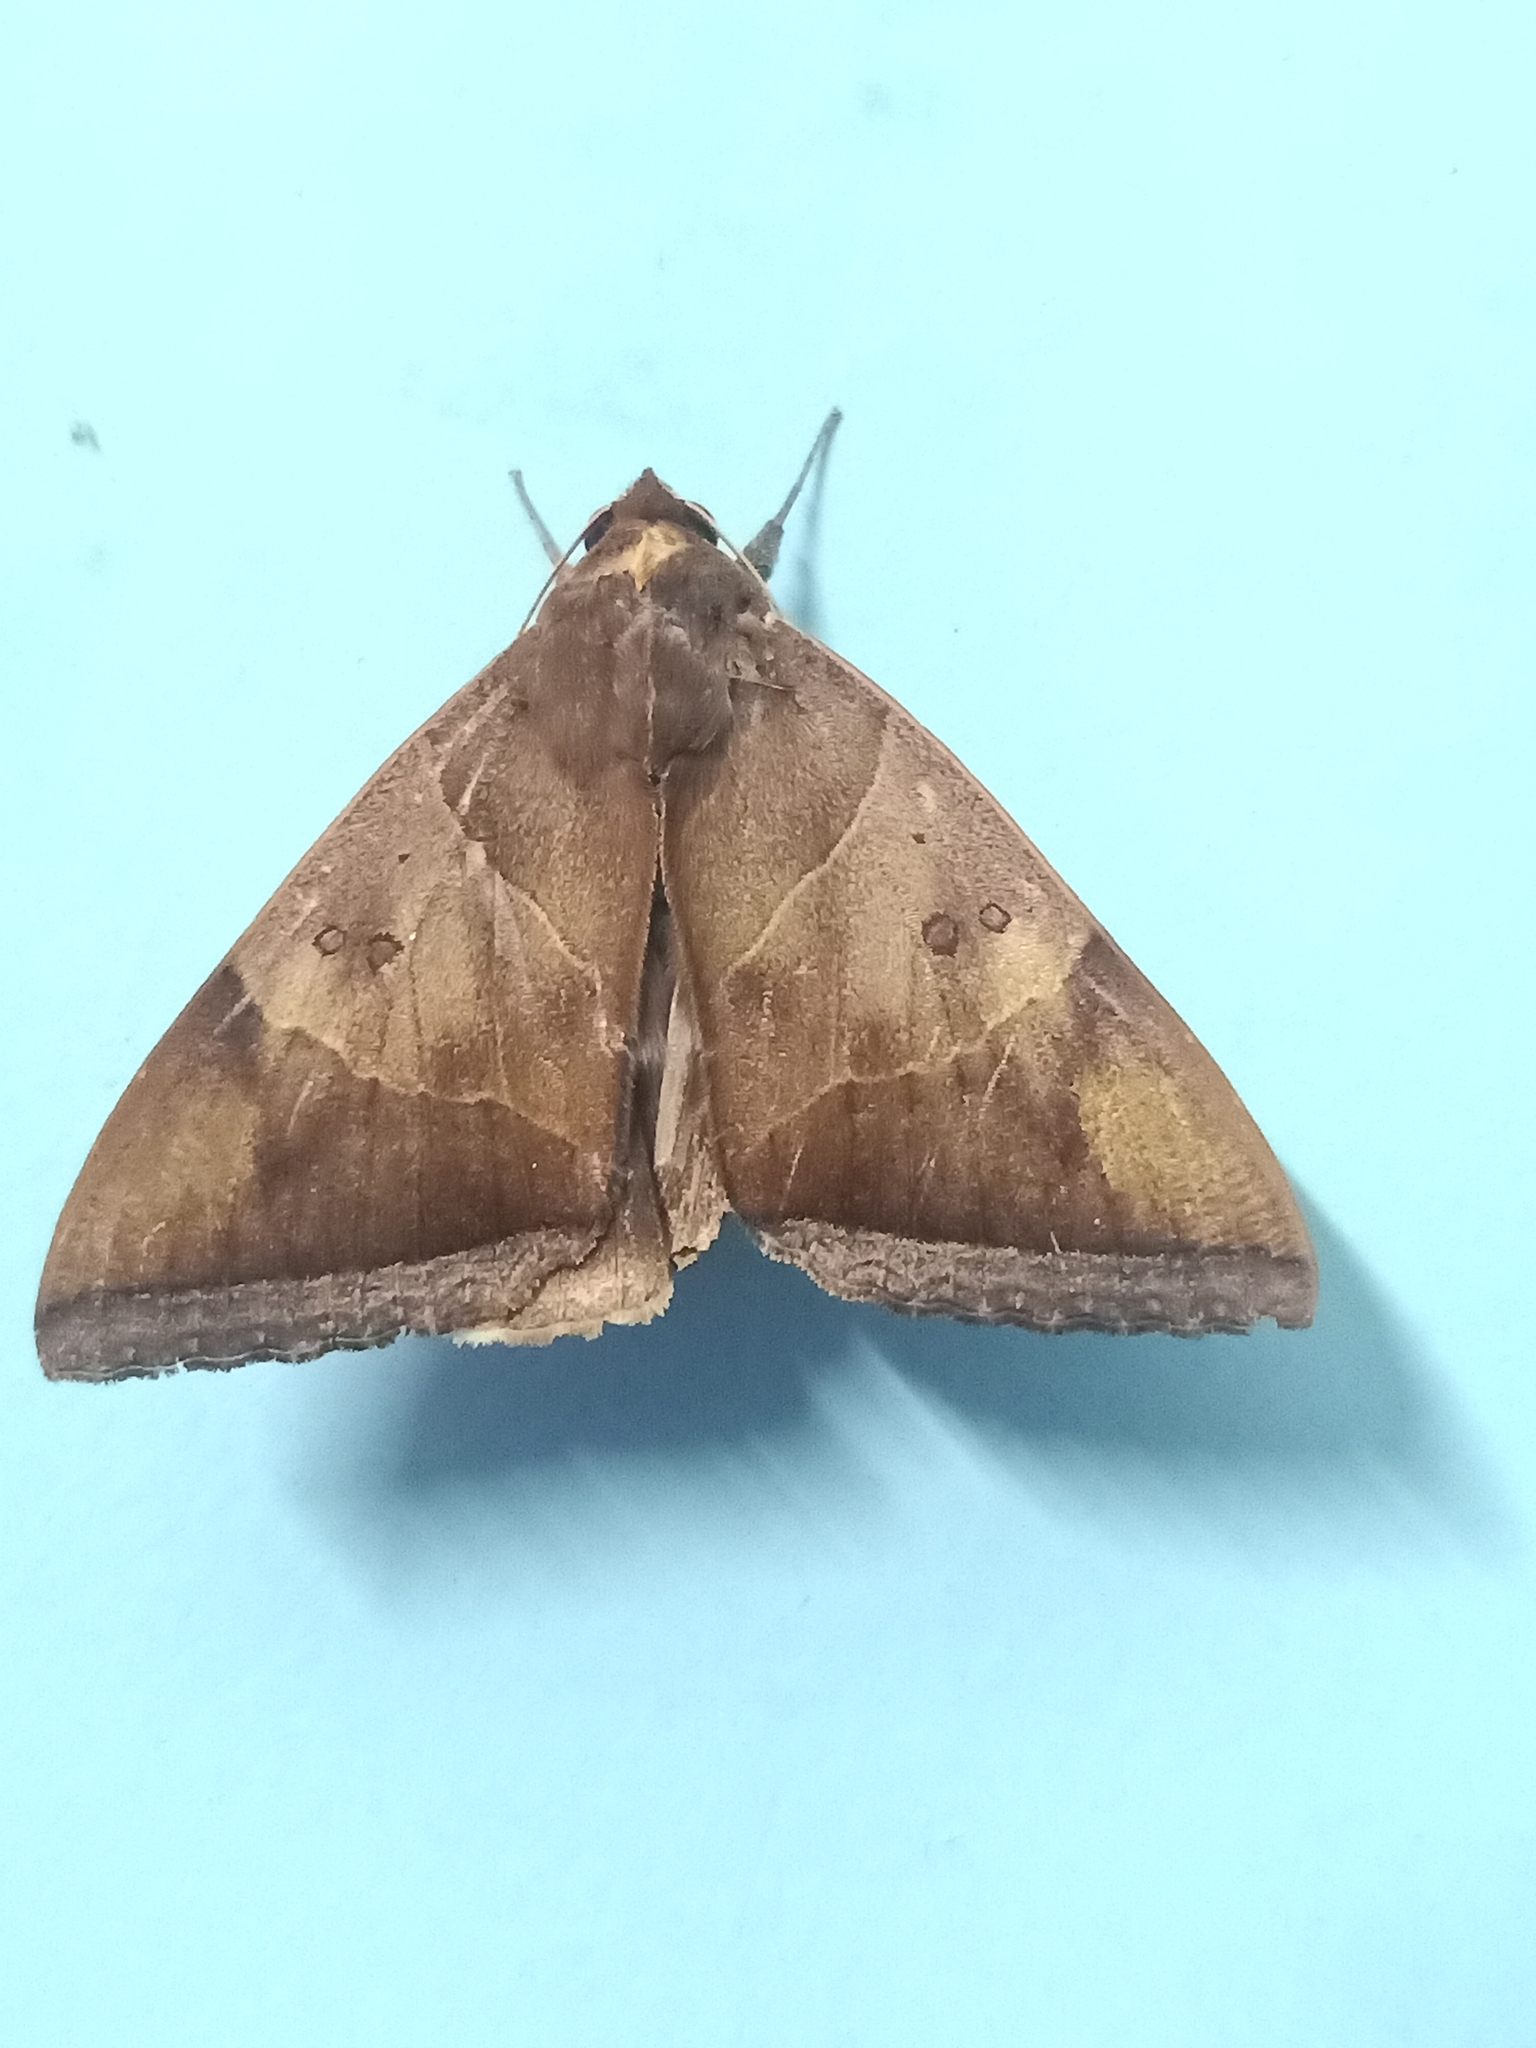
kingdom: Animalia
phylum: Arthropoda
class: Insecta
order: Lepidoptera
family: Erebidae
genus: Artena
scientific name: Artena dotata
